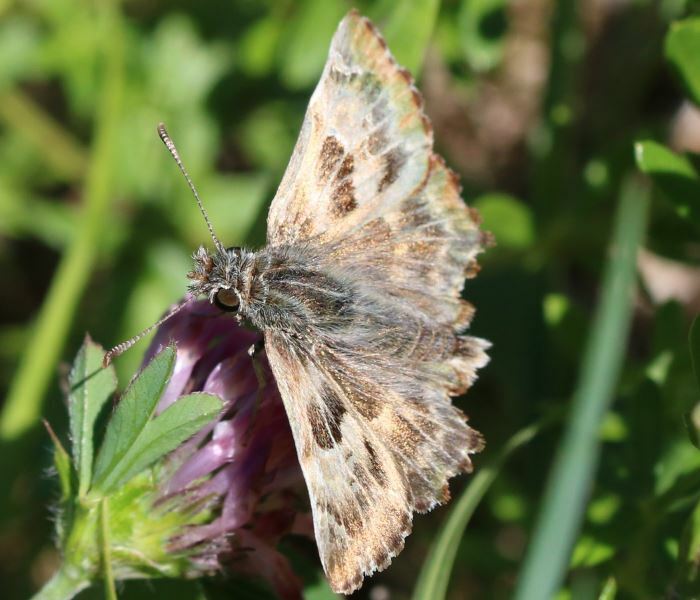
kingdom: Animalia
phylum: Arthropoda
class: Insecta
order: Lepidoptera
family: Hesperiidae
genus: Carcharodus
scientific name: Carcharodus alceae
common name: Mallow skipper
